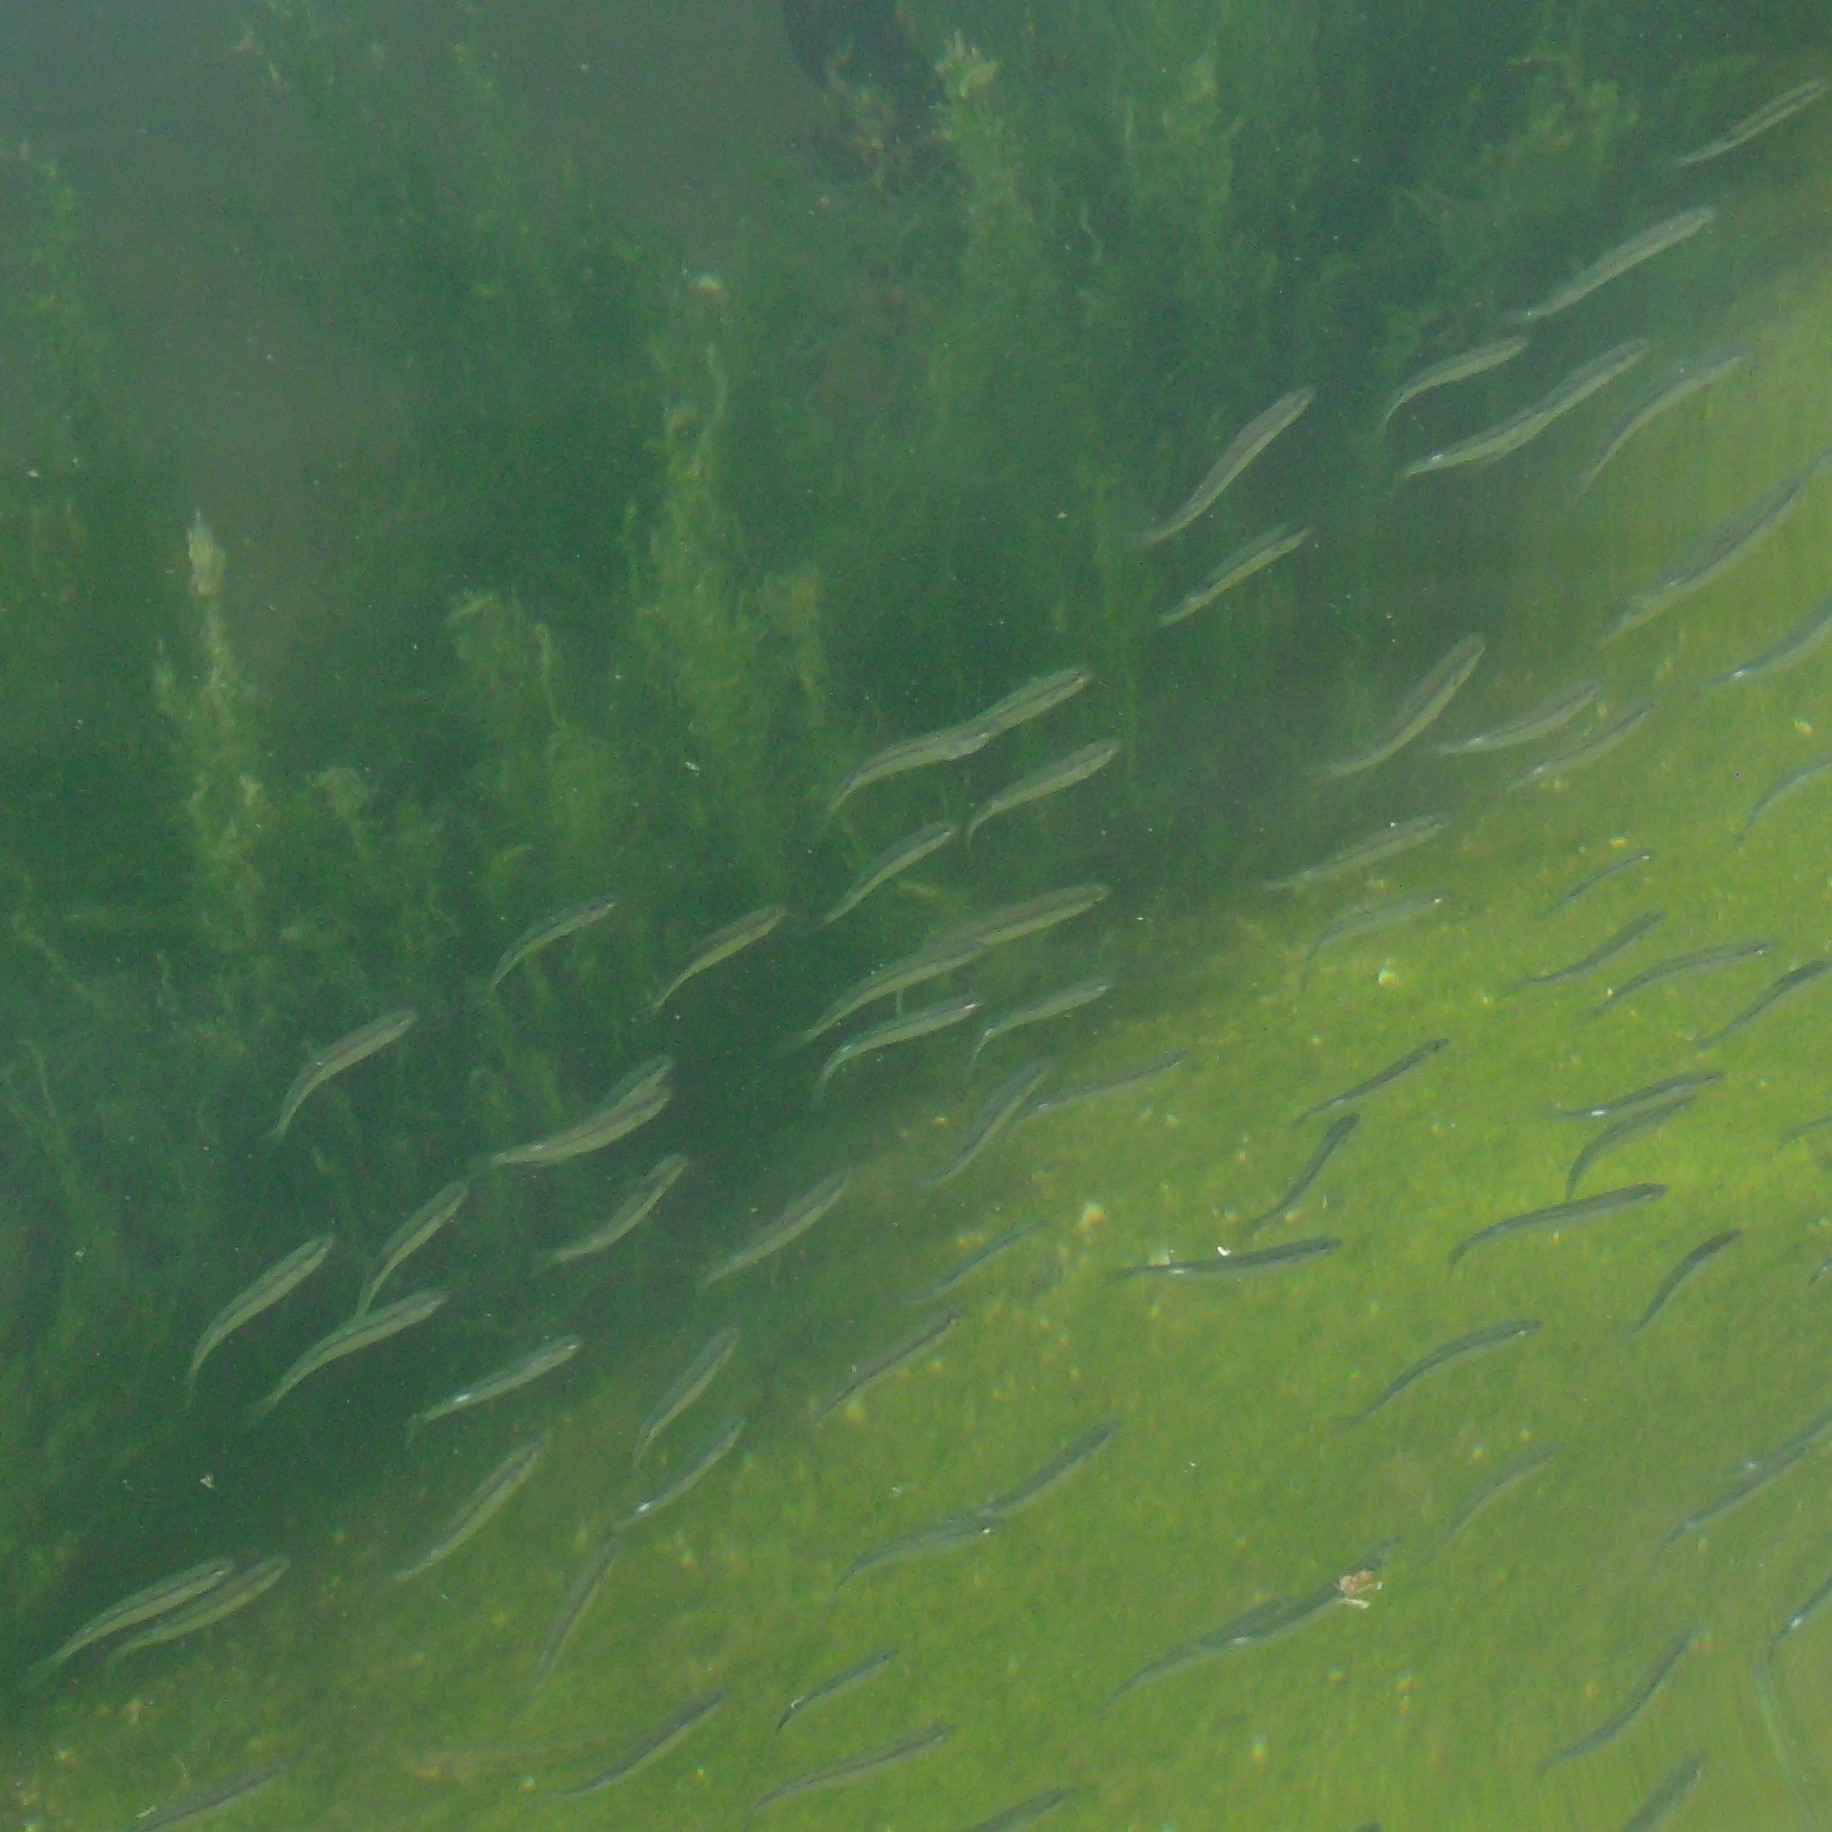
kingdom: Animalia
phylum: Chordata
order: Mugiliformes
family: Mugilidae
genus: Aldrichetta
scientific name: Aldrichetta forsteri
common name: Yellow-eye mullet
